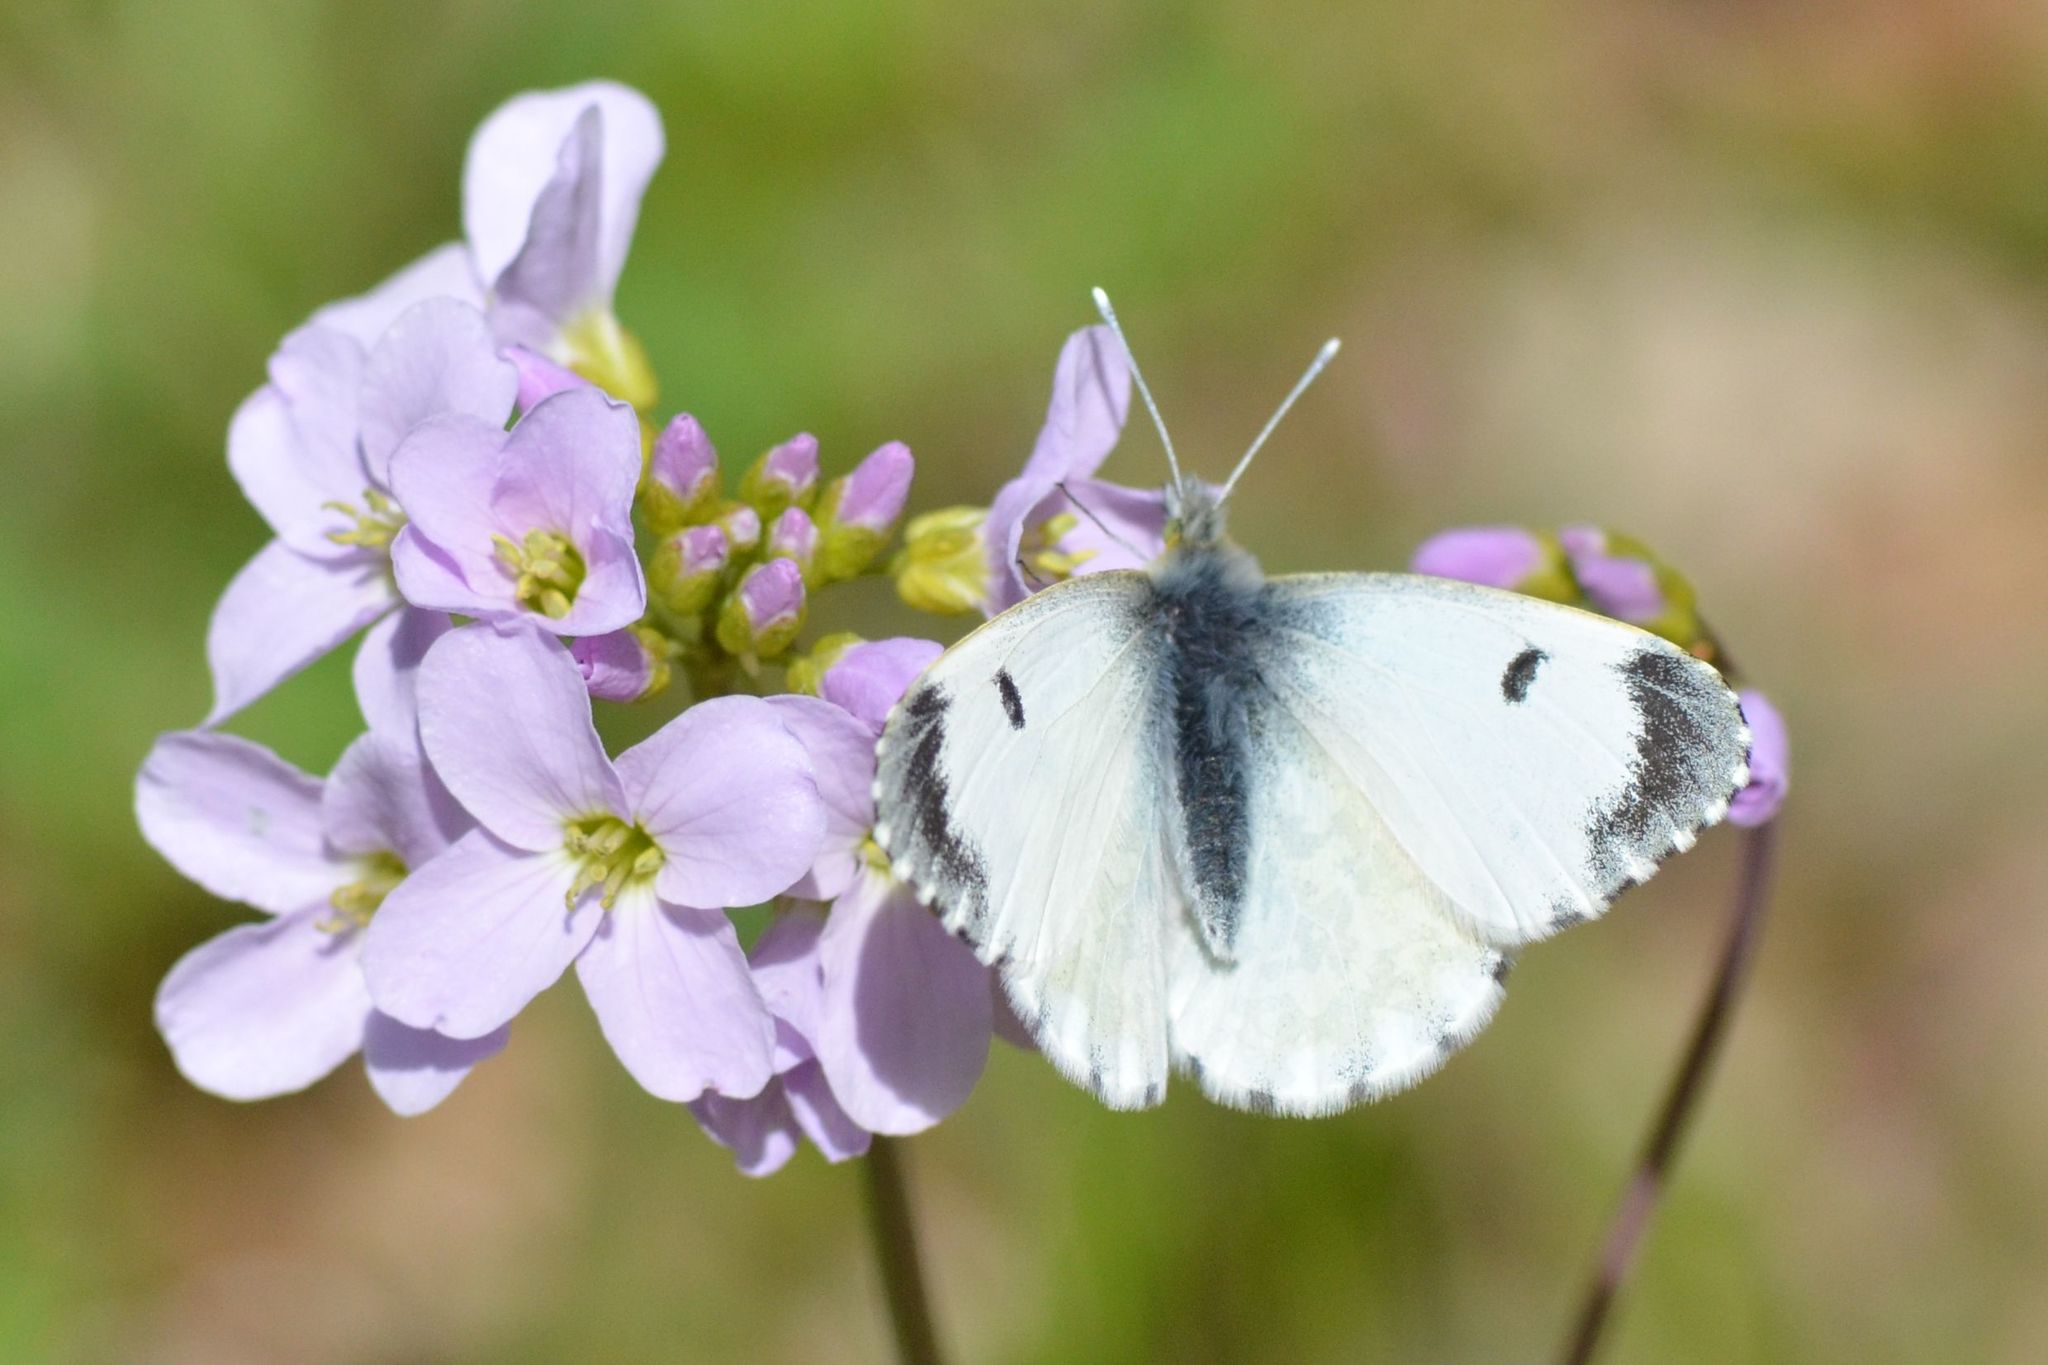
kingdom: Animalia
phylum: Arthropoda
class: Insecta
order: Lepidoptera
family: Pieridae
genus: Anthocharis
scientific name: Anthocharis cardamines
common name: Orange-tip
